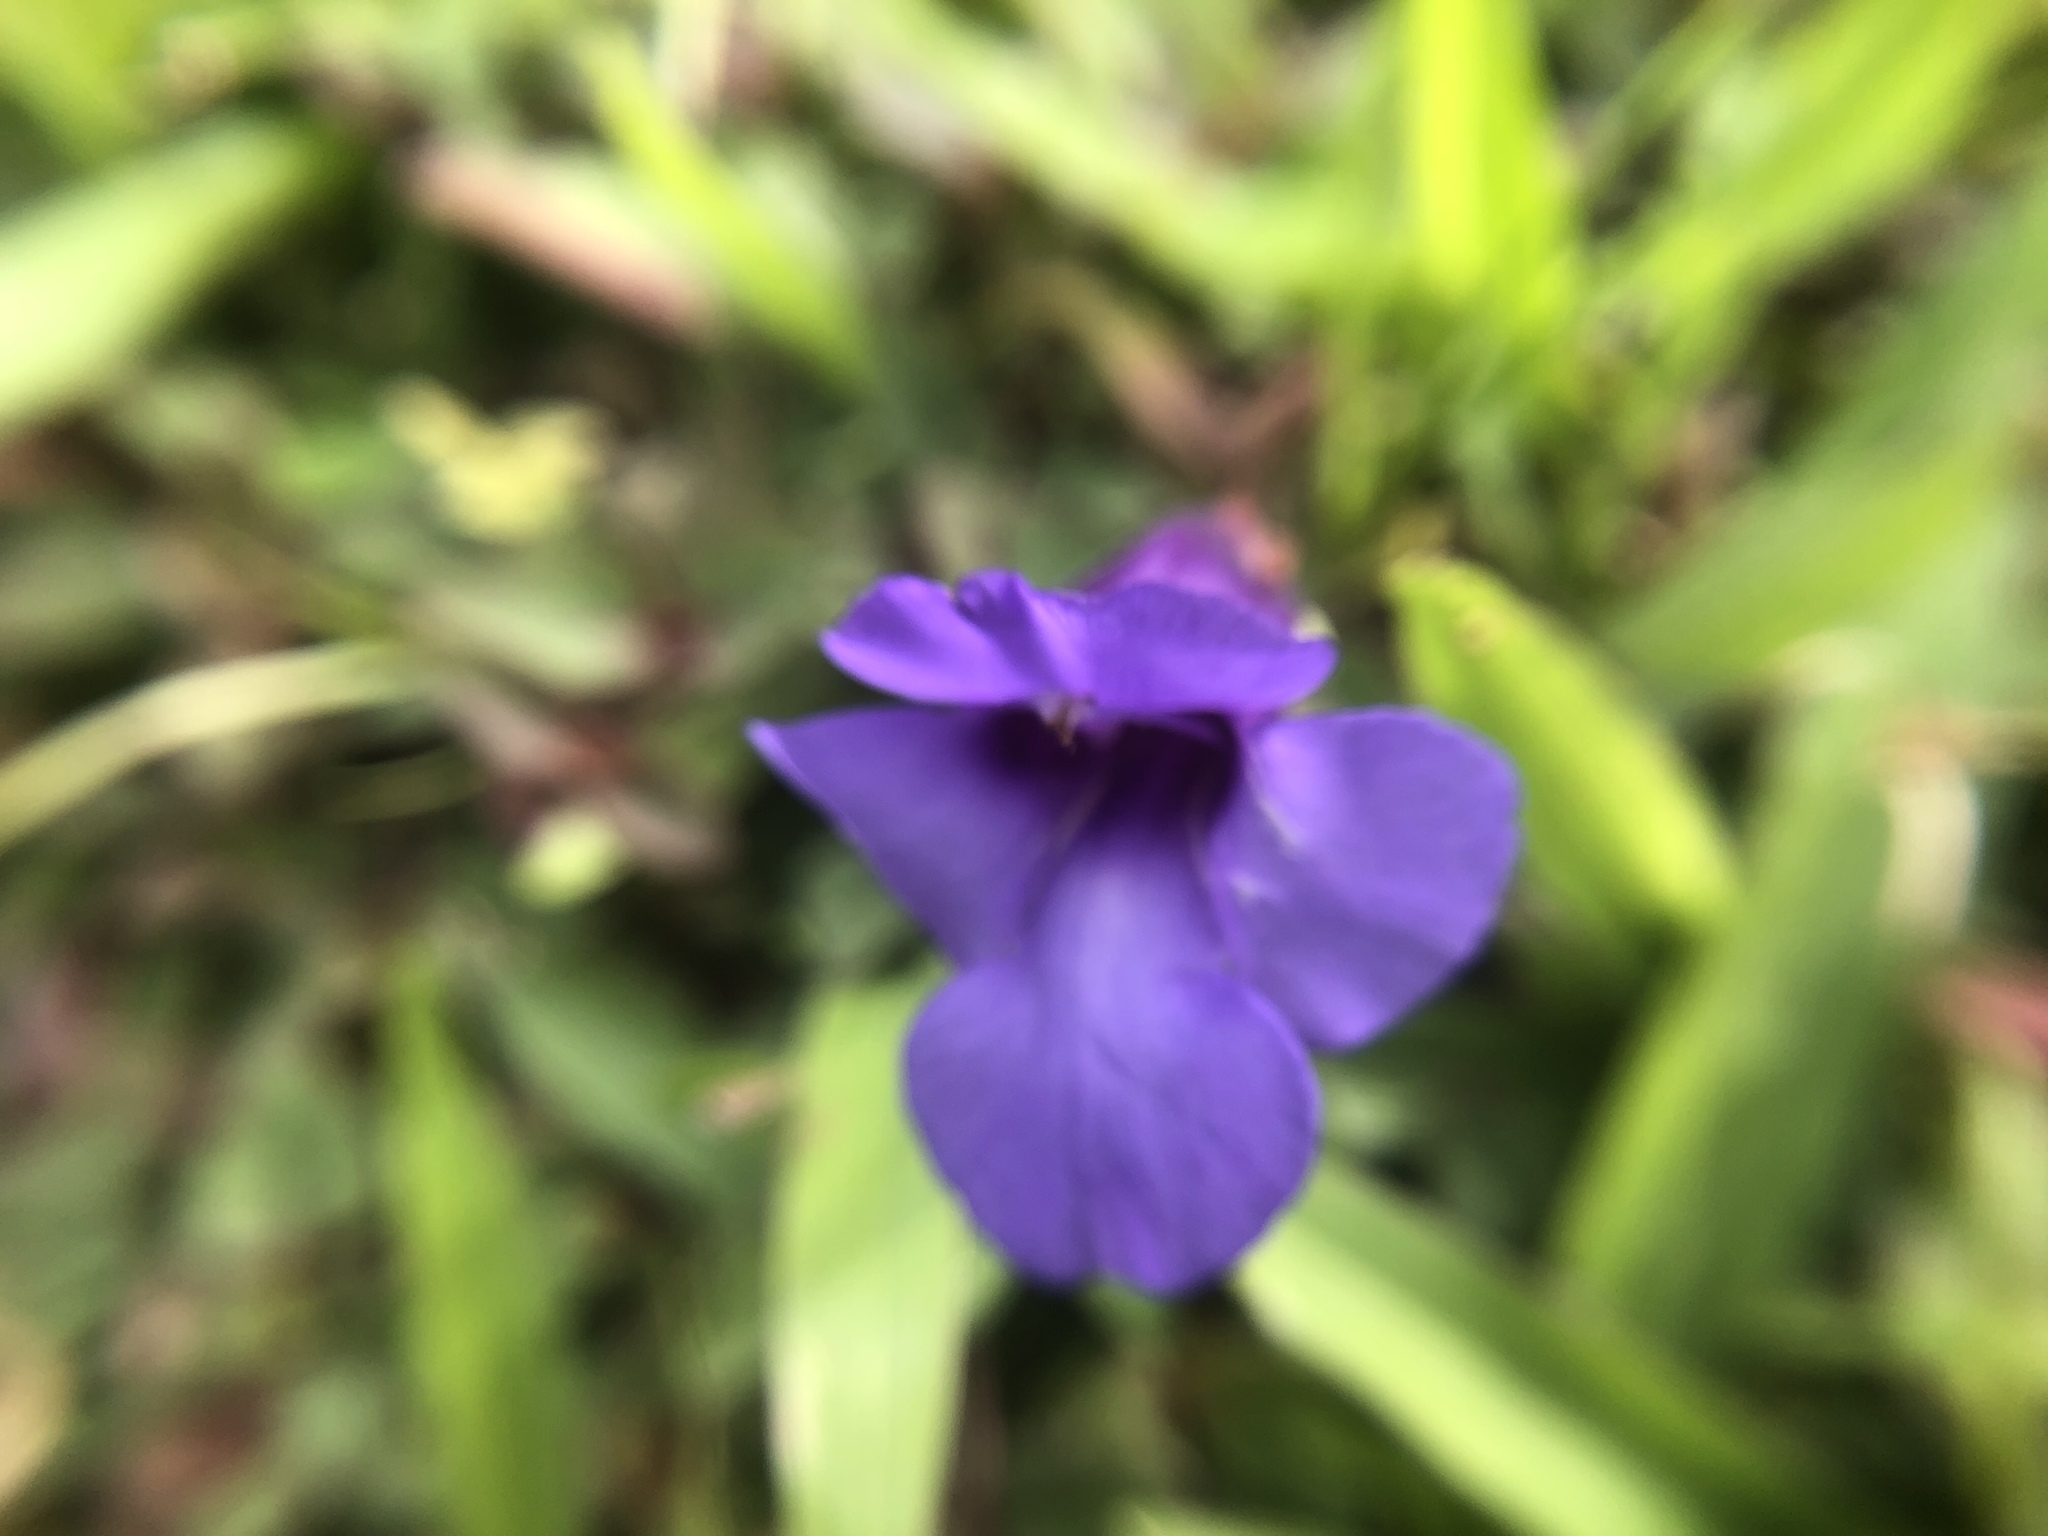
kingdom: Plantae
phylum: Tracheophyta
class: Magnoliopsida
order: Lamiales
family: Linderniaceae
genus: Torenia
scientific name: Torenia concolor
